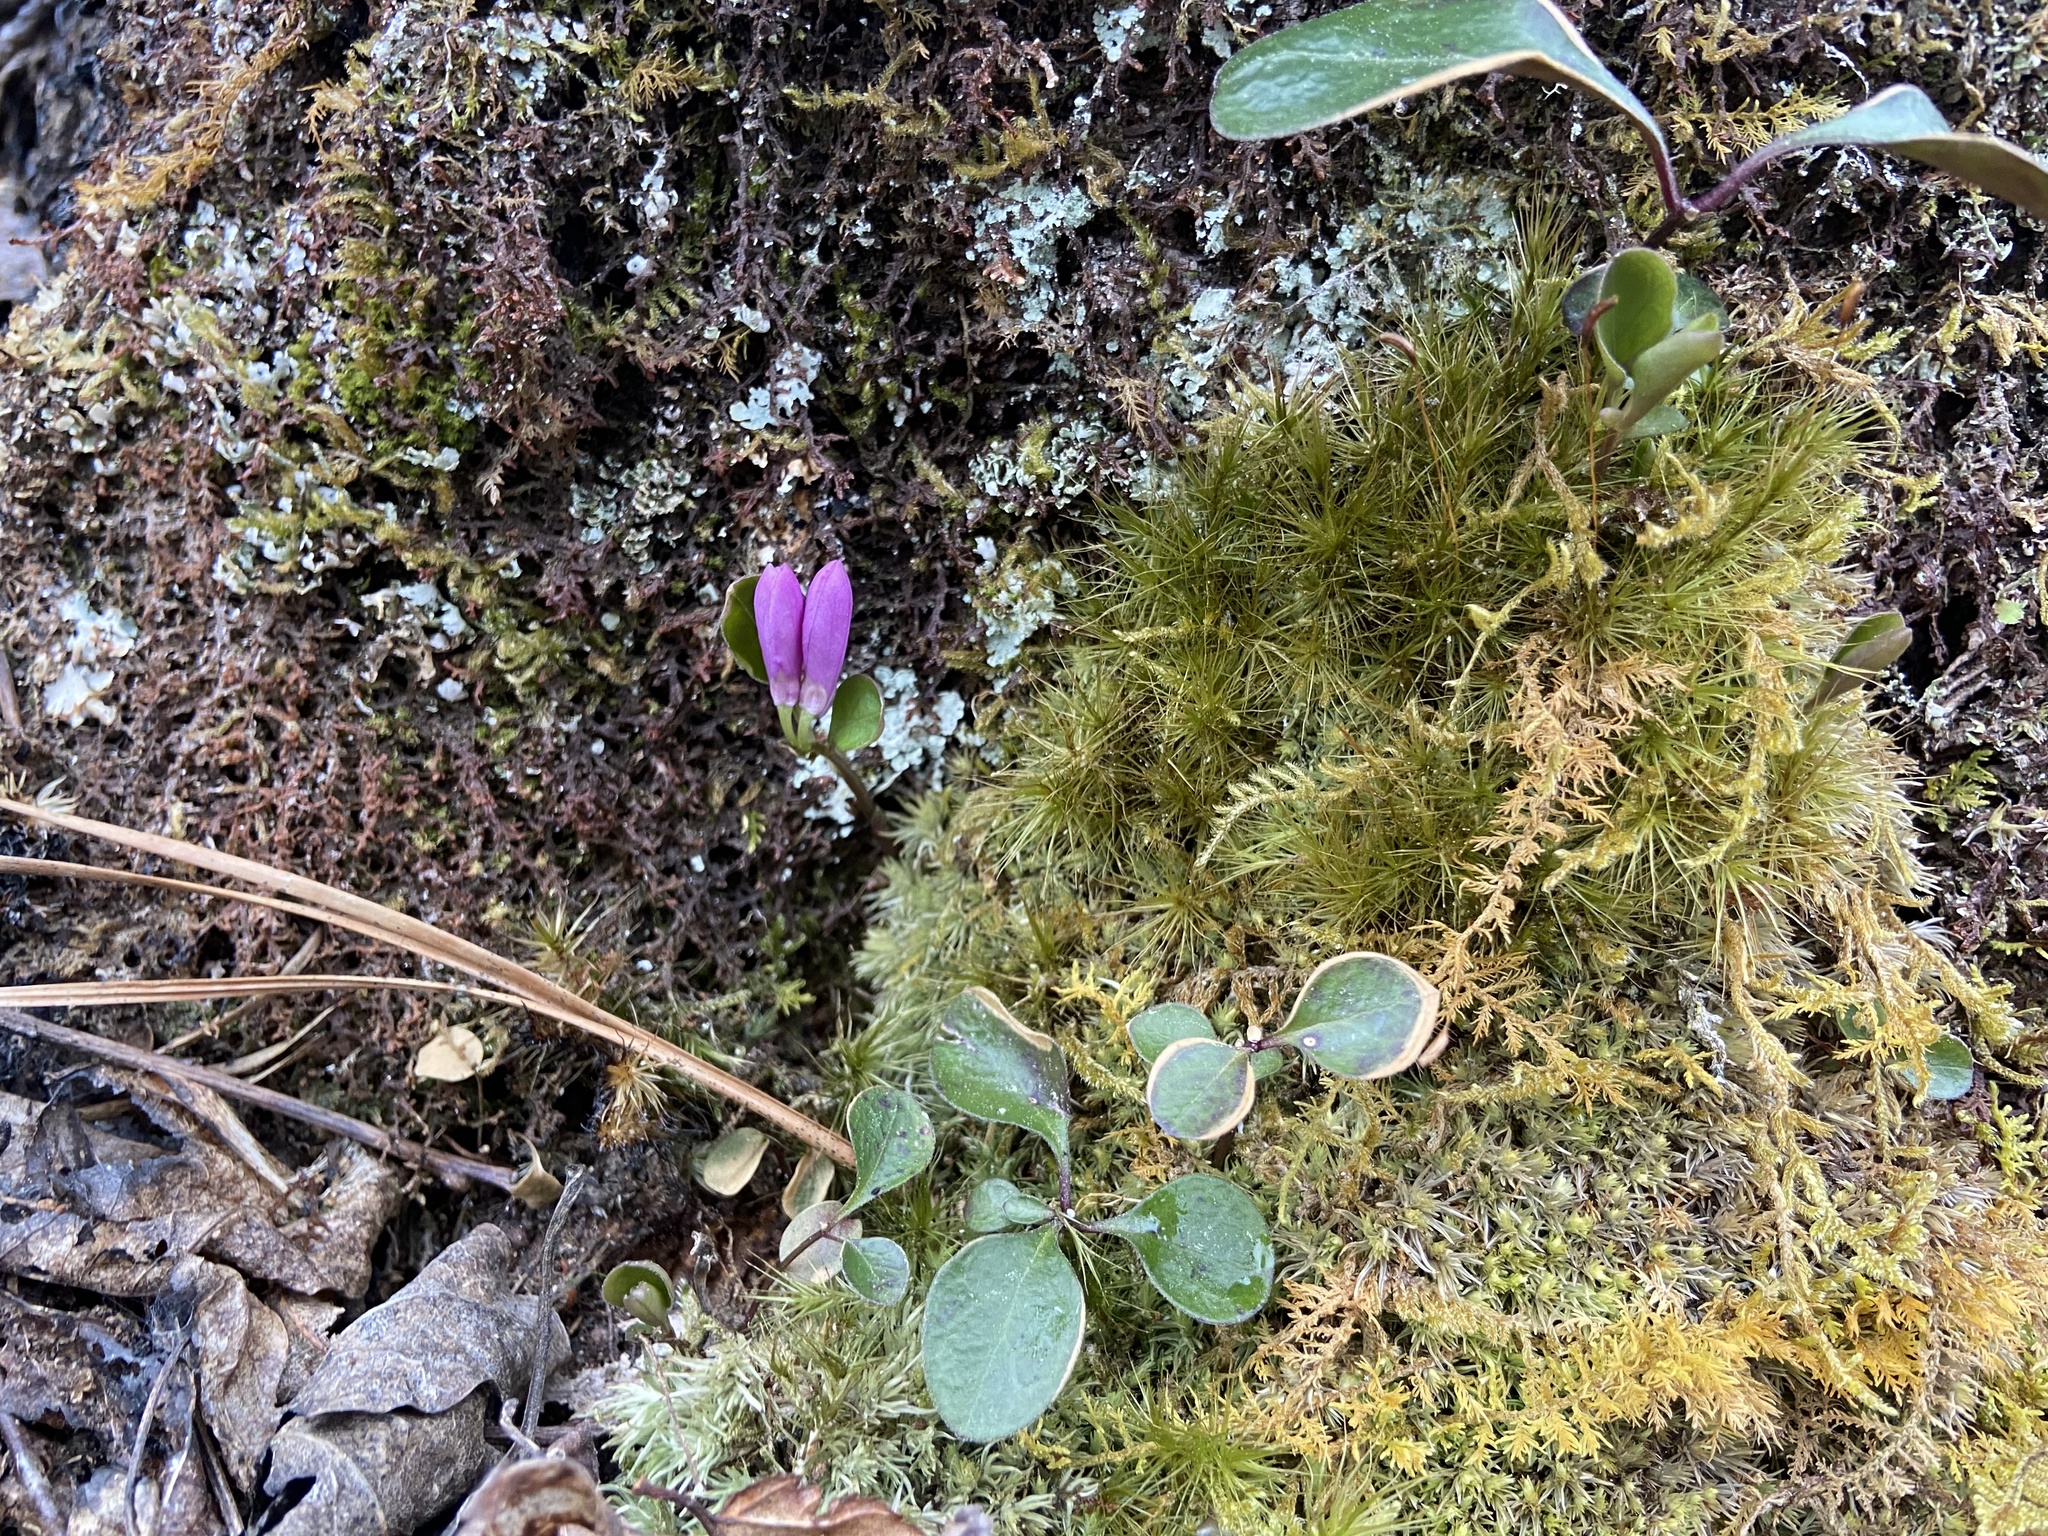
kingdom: Plantae
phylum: Tracheophyta
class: Magnoliopsida
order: Fabales
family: Polygalaceae
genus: Polygaloides
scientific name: Polygaloides paucifolia
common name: Bird-on-the-wing
